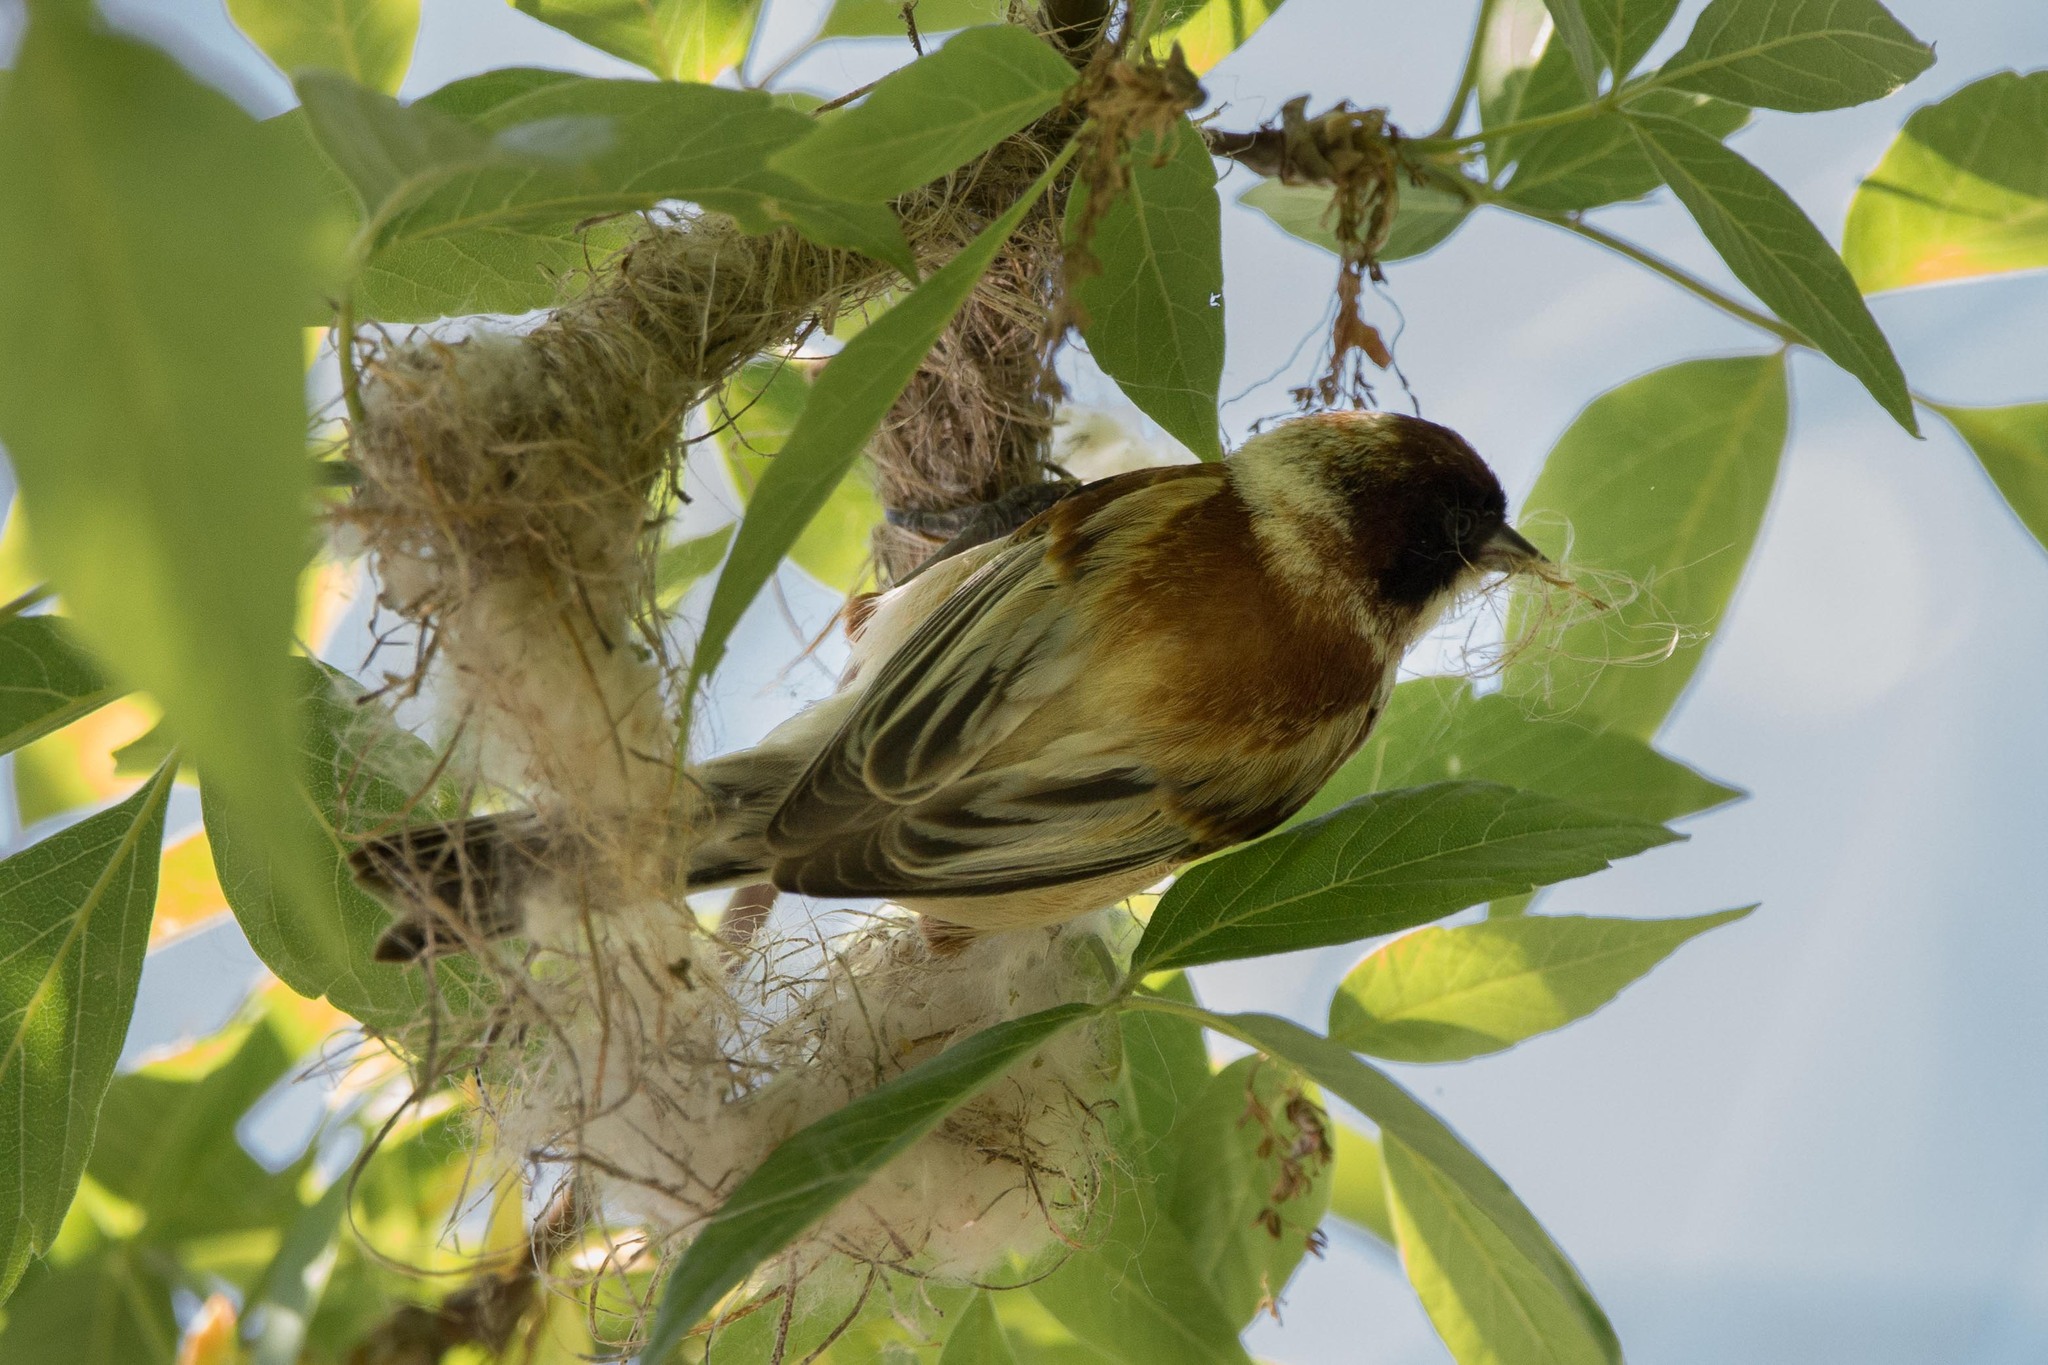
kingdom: Animalia
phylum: Chordata
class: Aves
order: Passeriformes
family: Remizidae
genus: Remiz
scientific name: Remiz pendulinus
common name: Eurasian penduline tit
